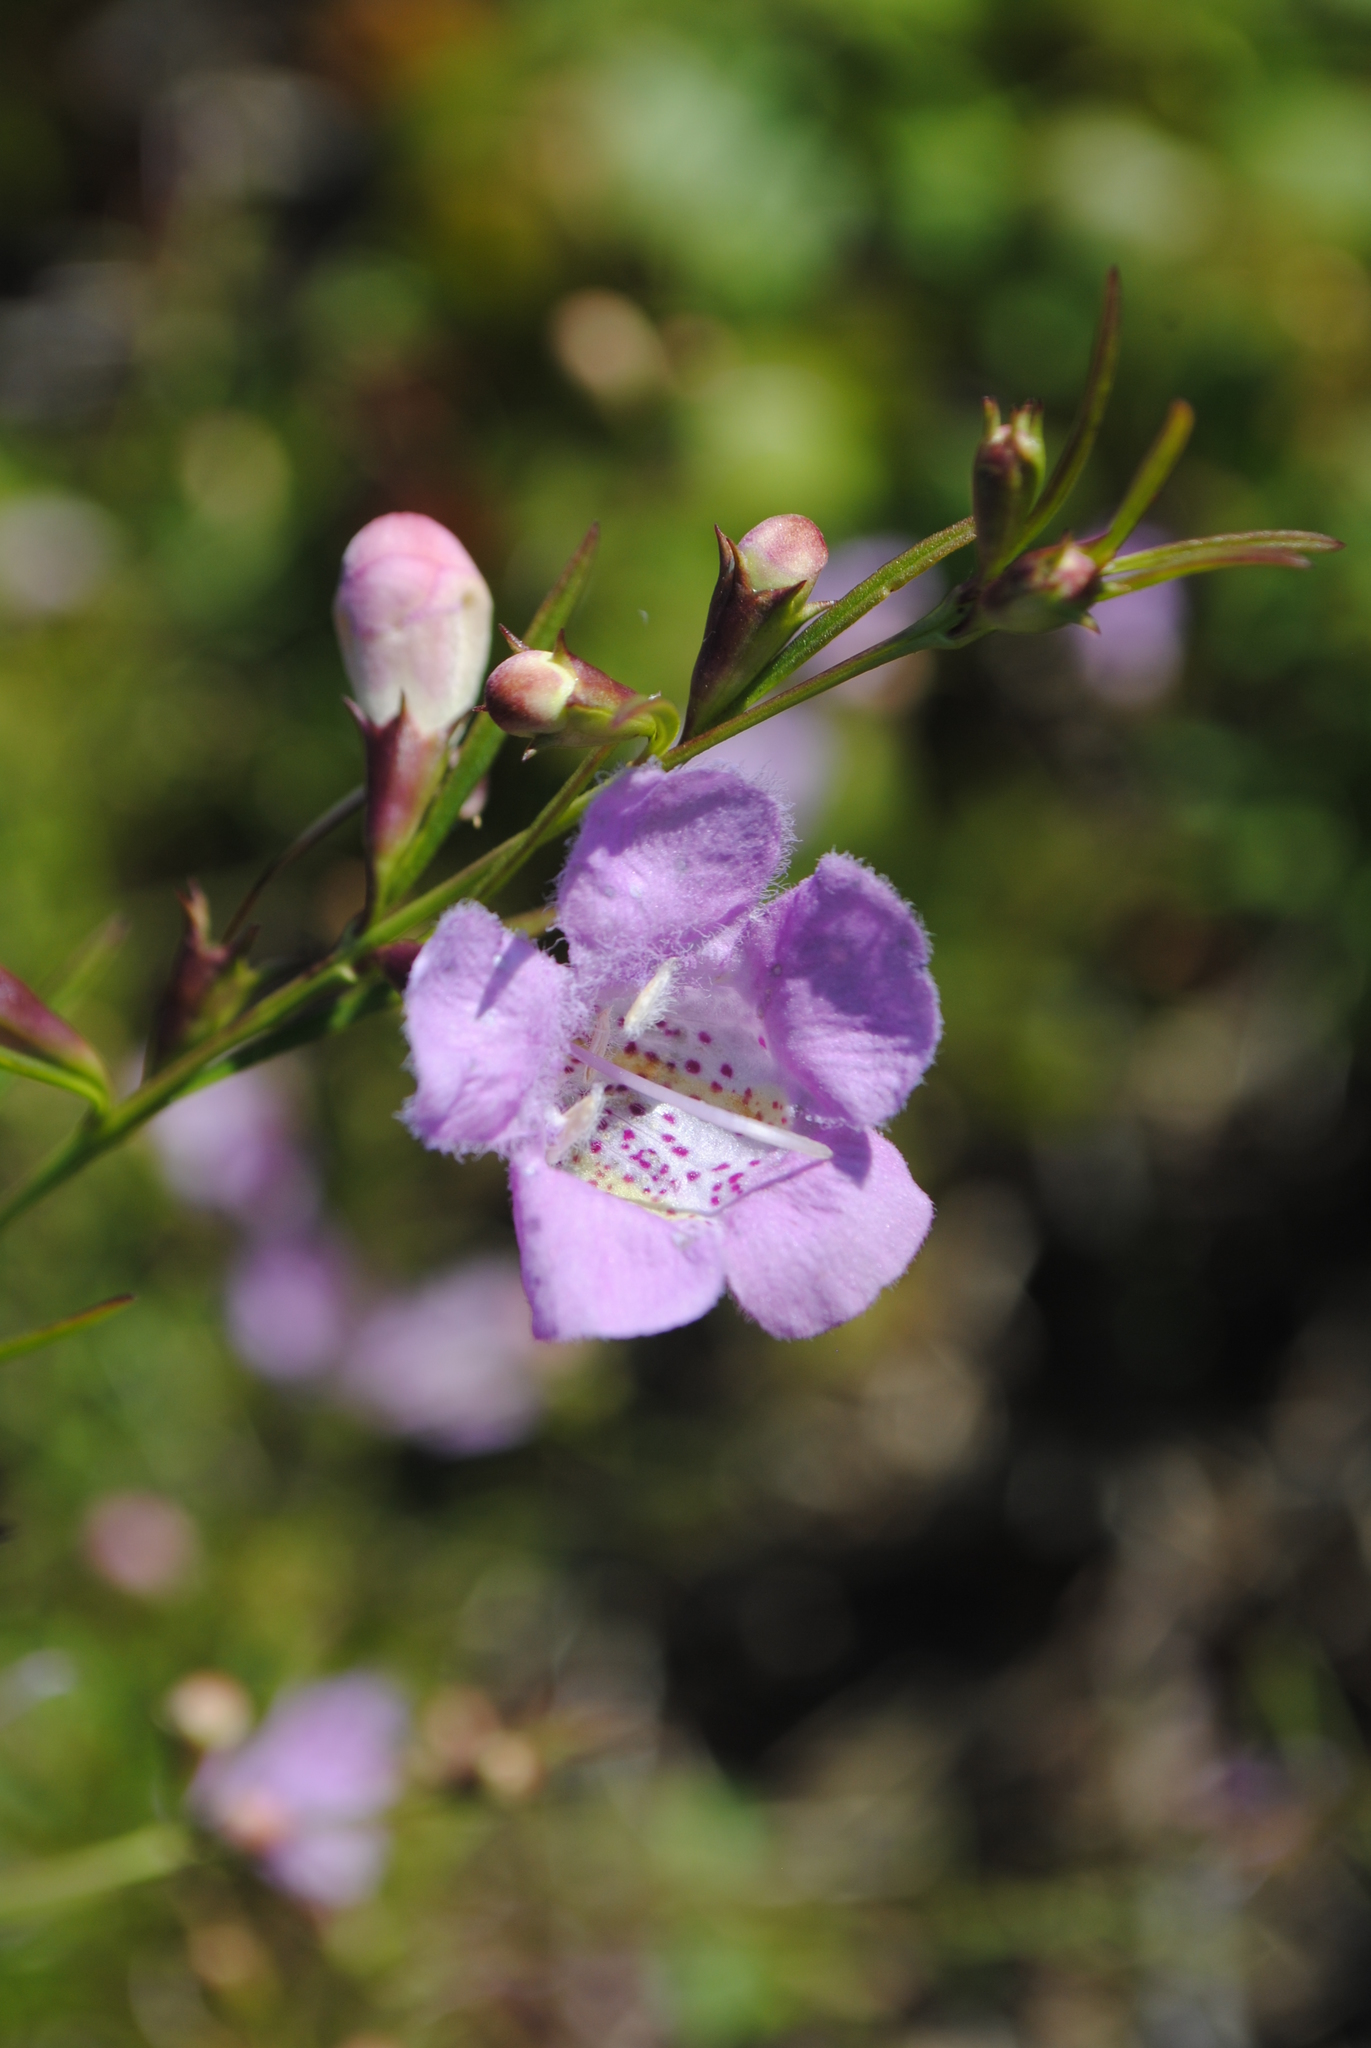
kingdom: Plantae
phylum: Tracheophyta
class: Magnoliopsida
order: Lamiales
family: Orobanchaceae
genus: Agalinis
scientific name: Agalinis purpurea
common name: Purple false foxglove
